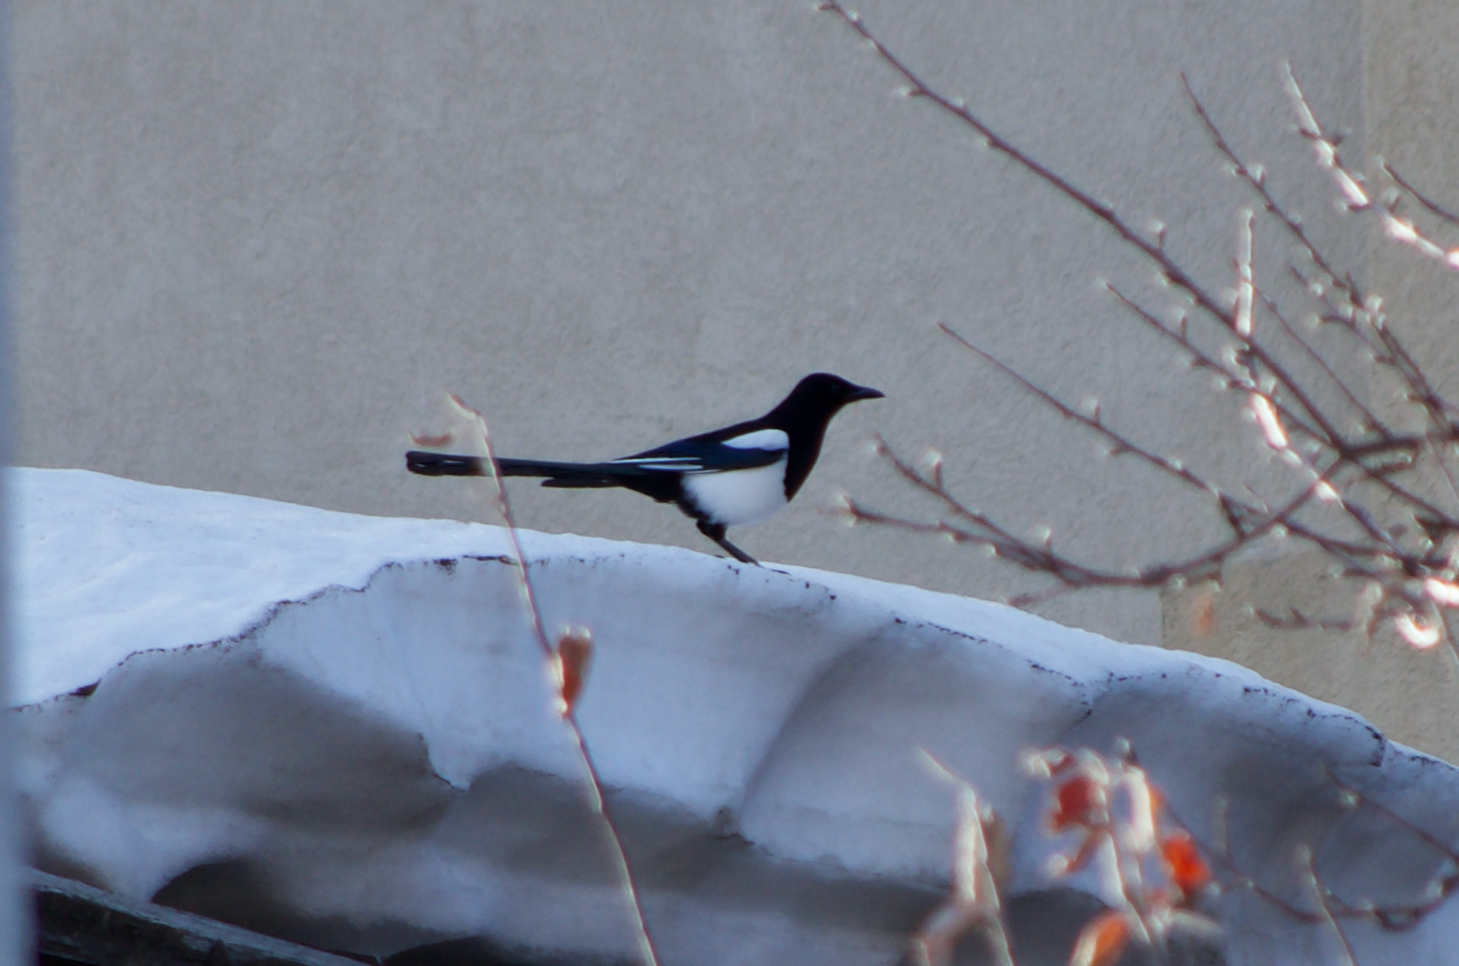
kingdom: Animalia
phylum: Chordata
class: Aves
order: Passeriformes
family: Corvidae
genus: Pica
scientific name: Pica pica
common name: Eurasian magpie
